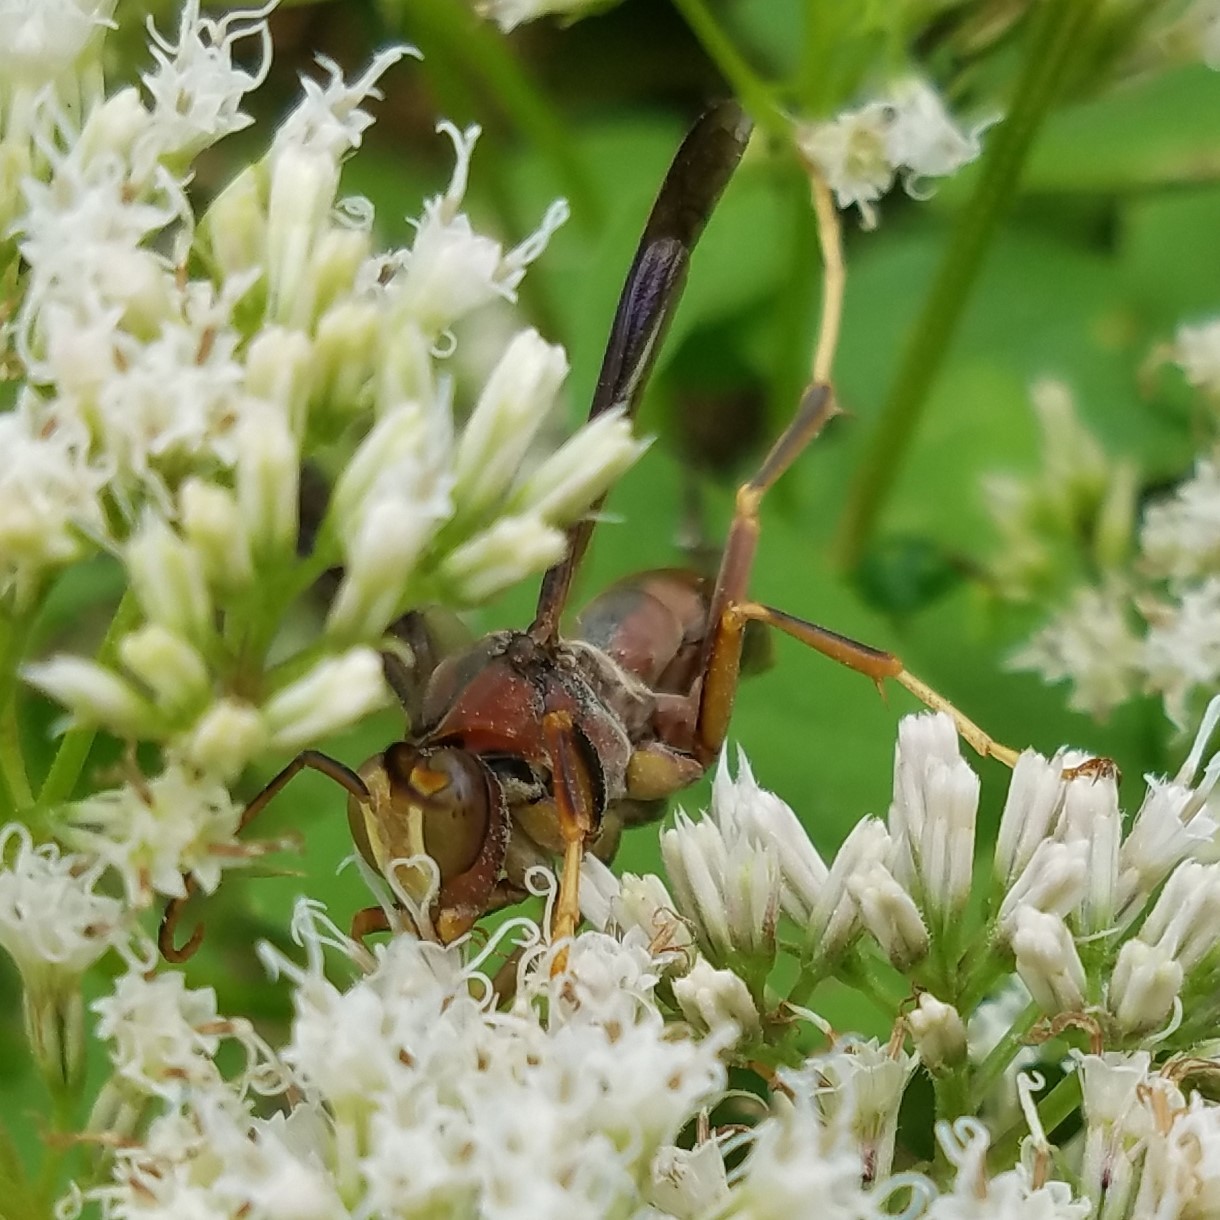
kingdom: Animalia
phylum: Arthropoda
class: Insecta
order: Hymenoptera
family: Eumenidae
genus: Polistes
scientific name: Polistes metricus
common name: Metric paper wasp
